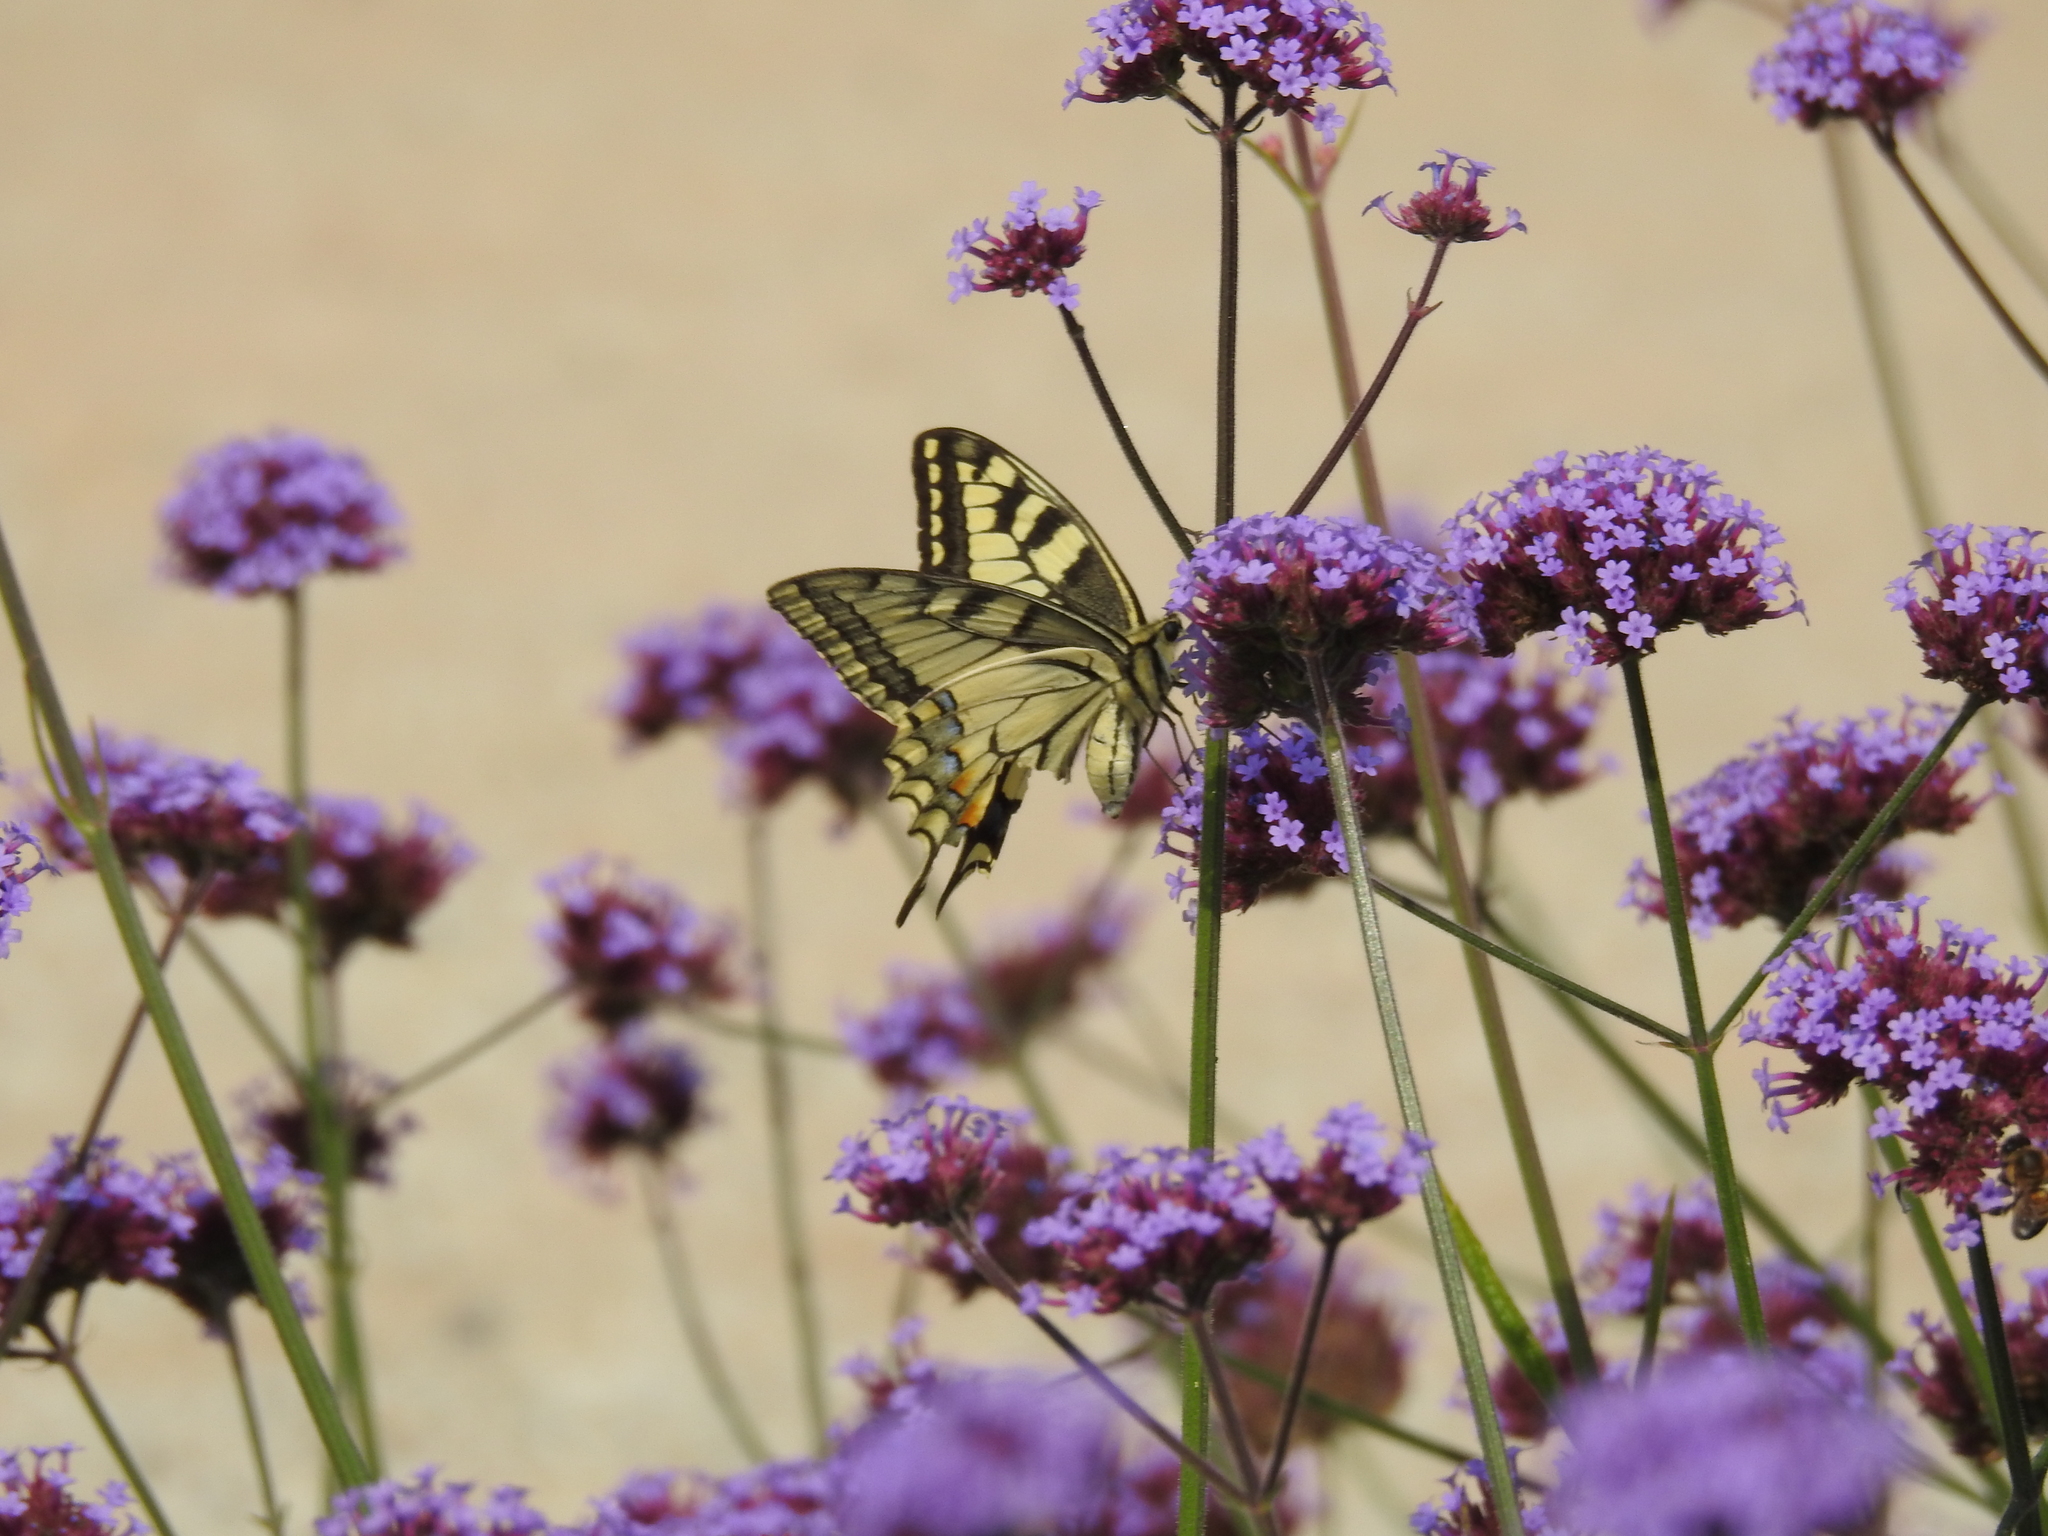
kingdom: Animalia
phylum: Arthropoda
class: Insecta
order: Lepidoptera
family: Papilionidae
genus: Papilio
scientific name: Papilio machaon
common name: Swallowtail
